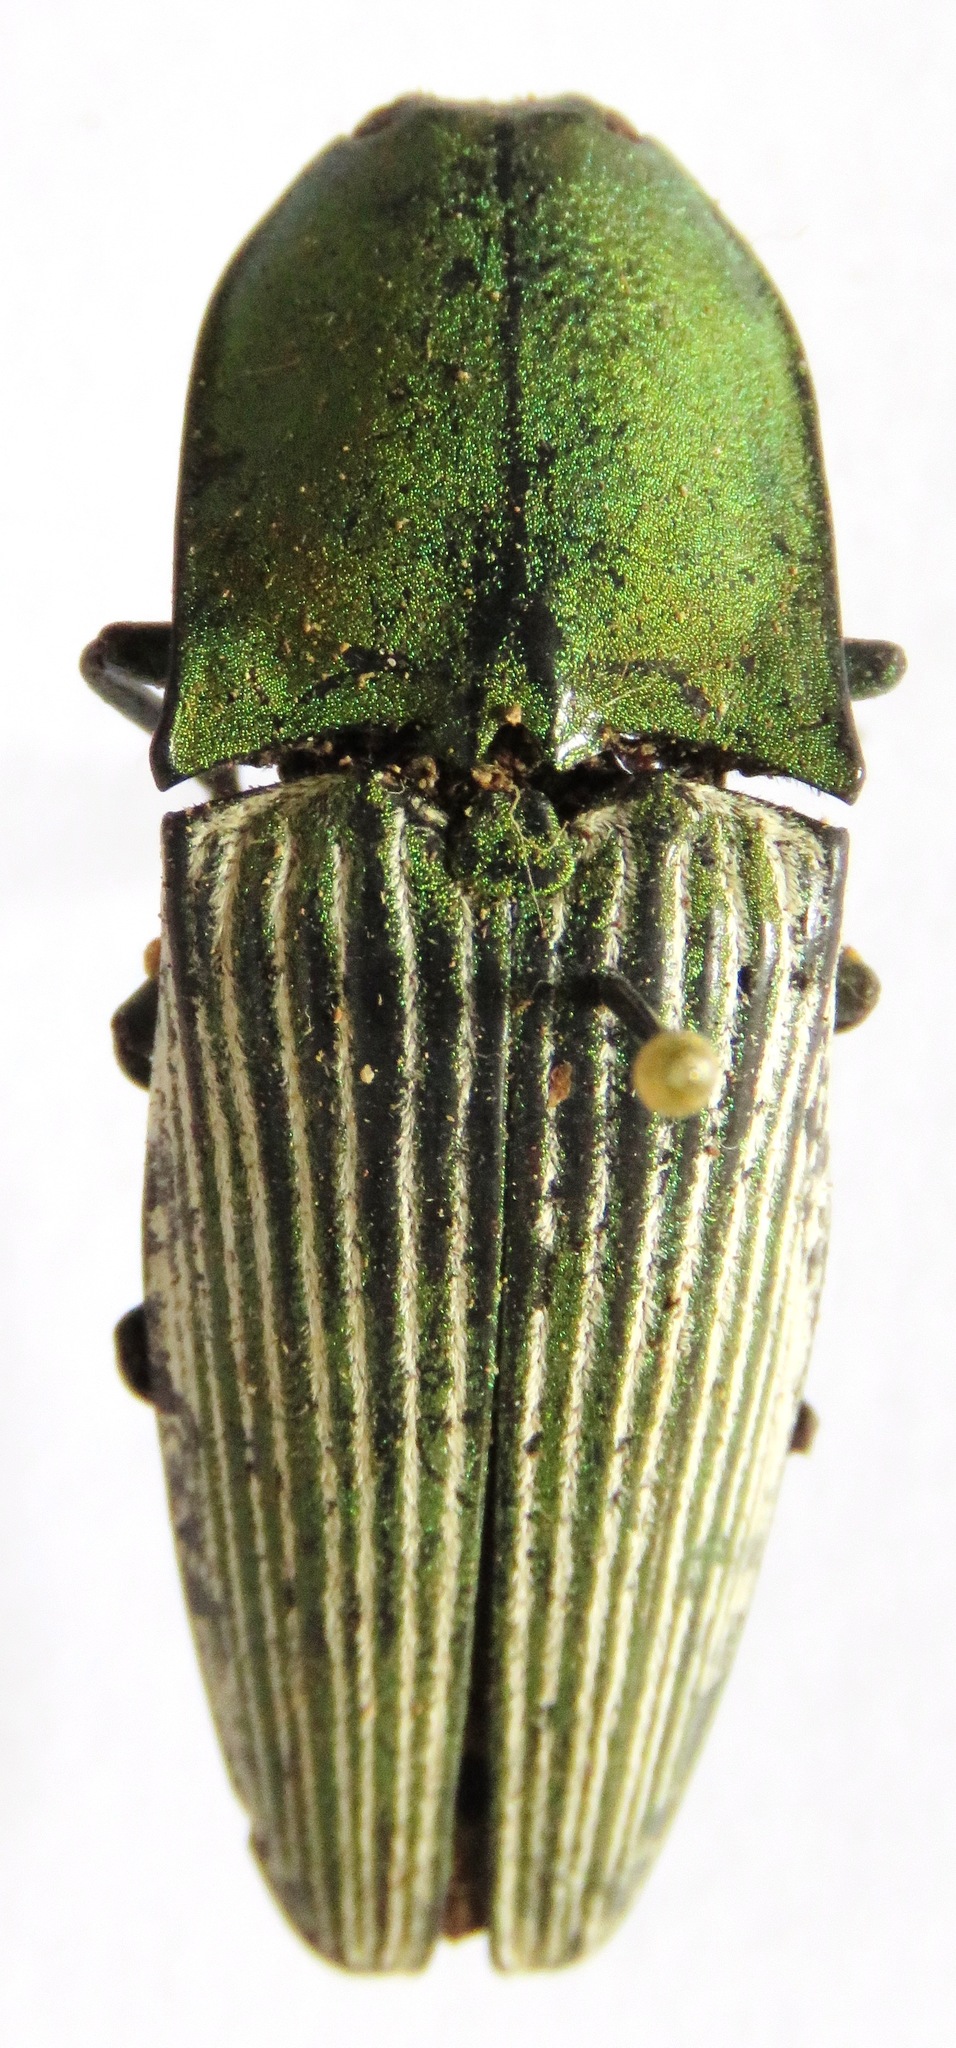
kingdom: Animalia
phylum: Arthropoda
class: Insecta
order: Coleoptera
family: Elateridae
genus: Chalcolepidius
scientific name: Chalcolepidius porcatus
